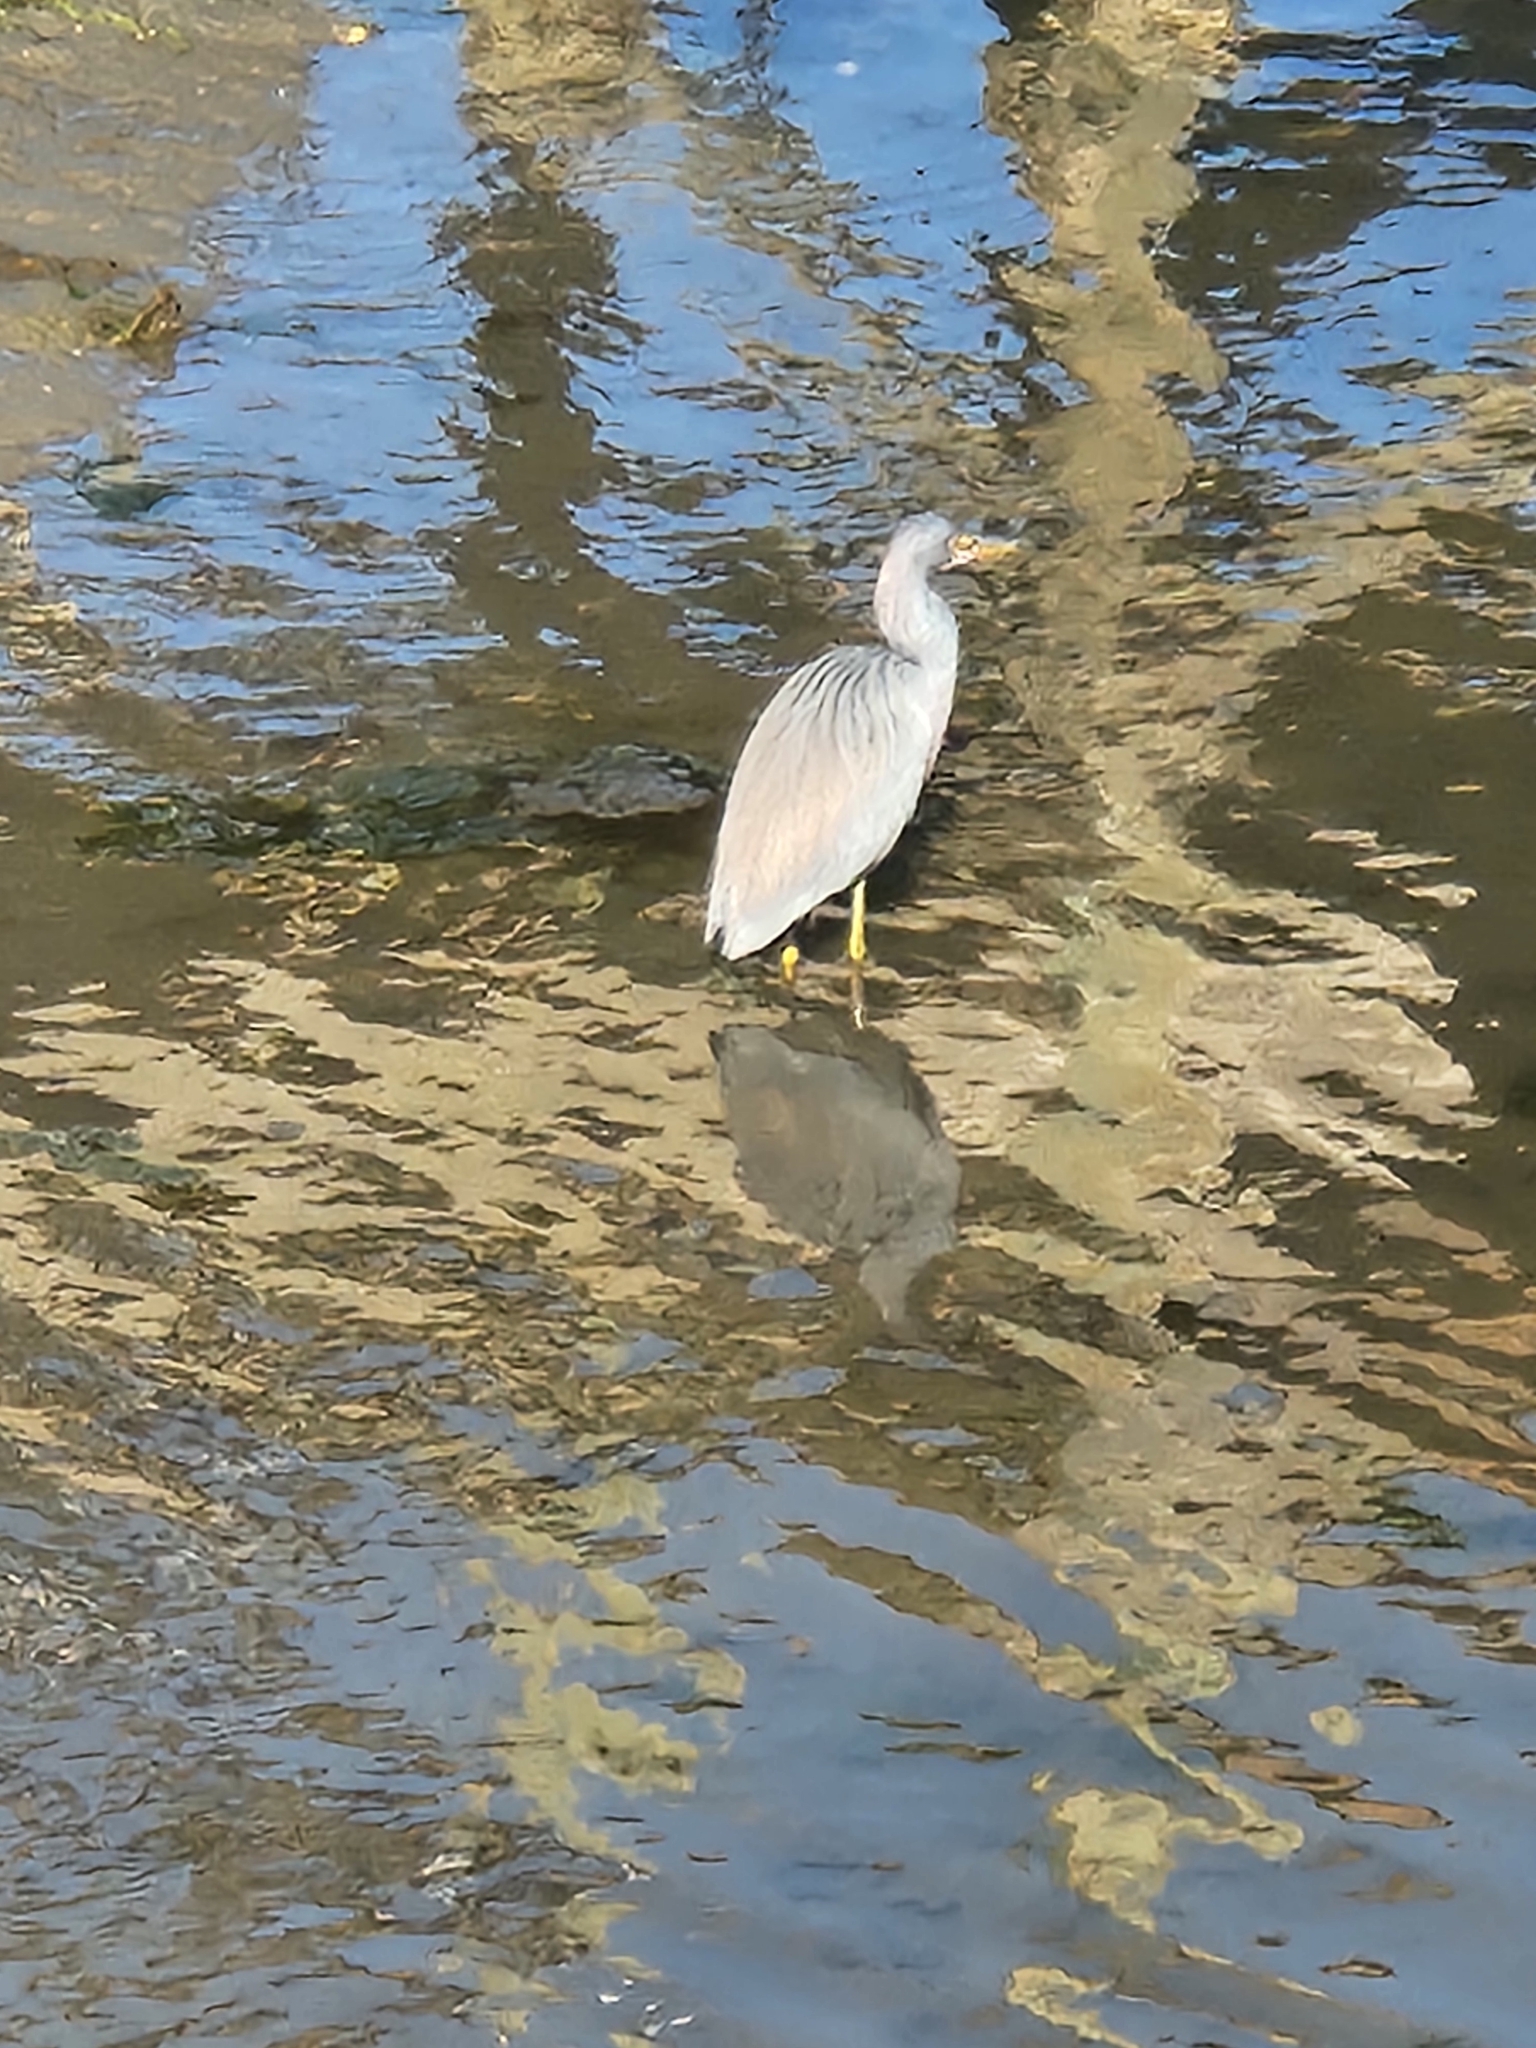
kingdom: Animalia
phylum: Chordata
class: Aves
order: Pelecaniformes
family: Ardeidae
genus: Egretta
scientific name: Egretta tricolor
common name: Tricolored heron
